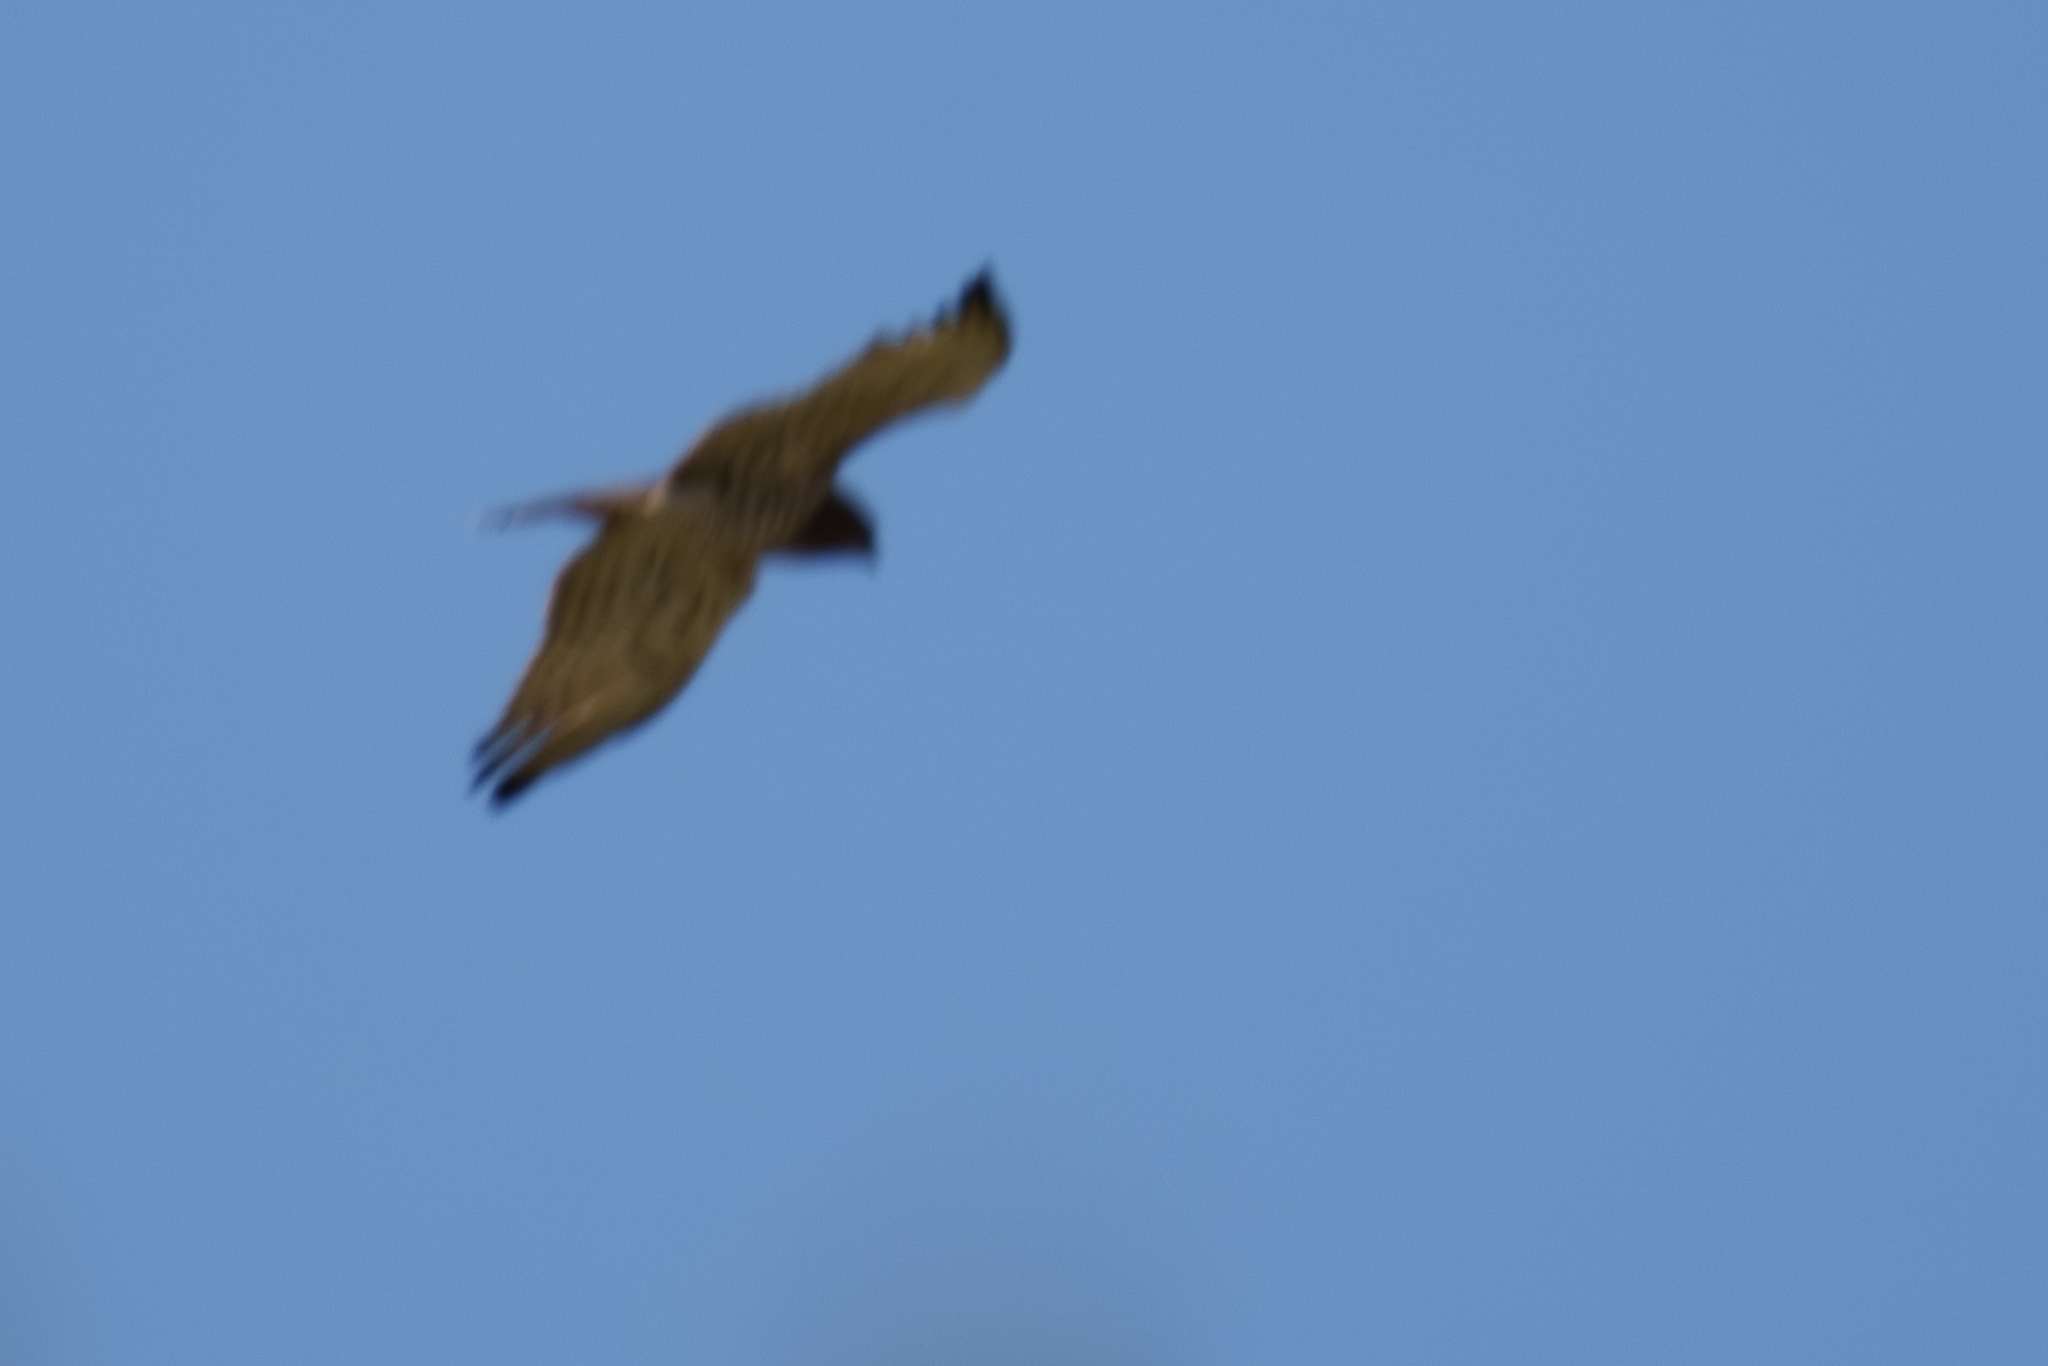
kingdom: Animalia
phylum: Chordata
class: Aves
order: Accipitriformes
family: Accipitridae
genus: Circaetus
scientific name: Circaetus gallicus
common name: Short-toed snake eagle
